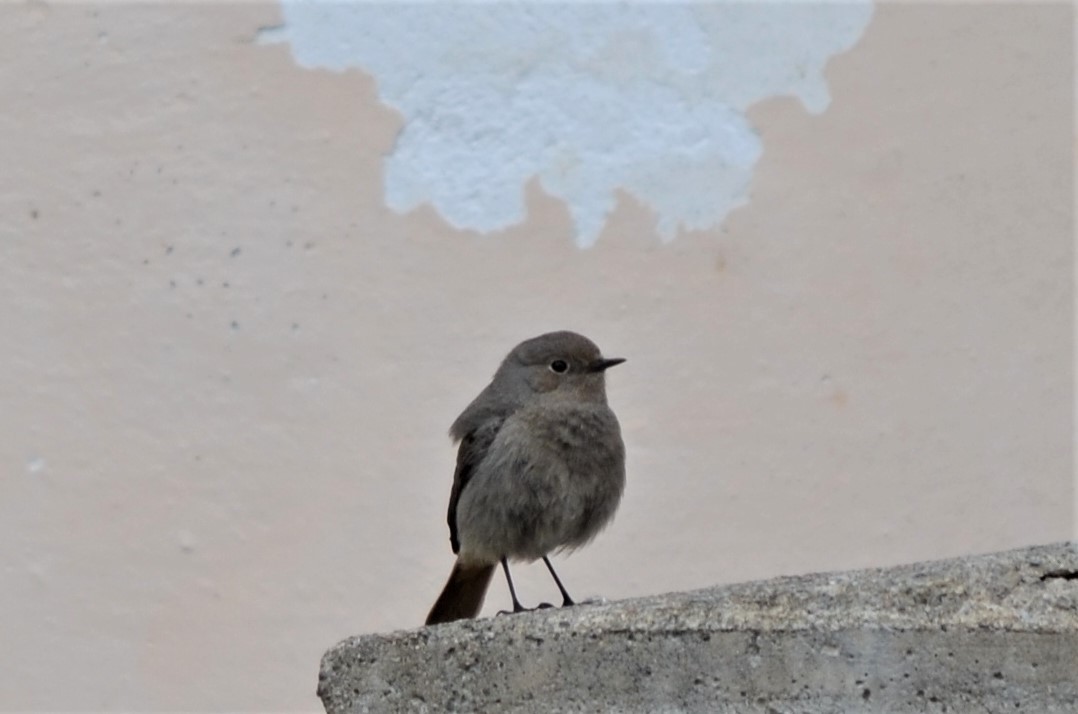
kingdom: Animalia
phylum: Chordata
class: Aves
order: Passeriformes
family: Muscicapidae
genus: Phoenicurus
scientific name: Phoenicurus ochruros
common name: Black redstart
